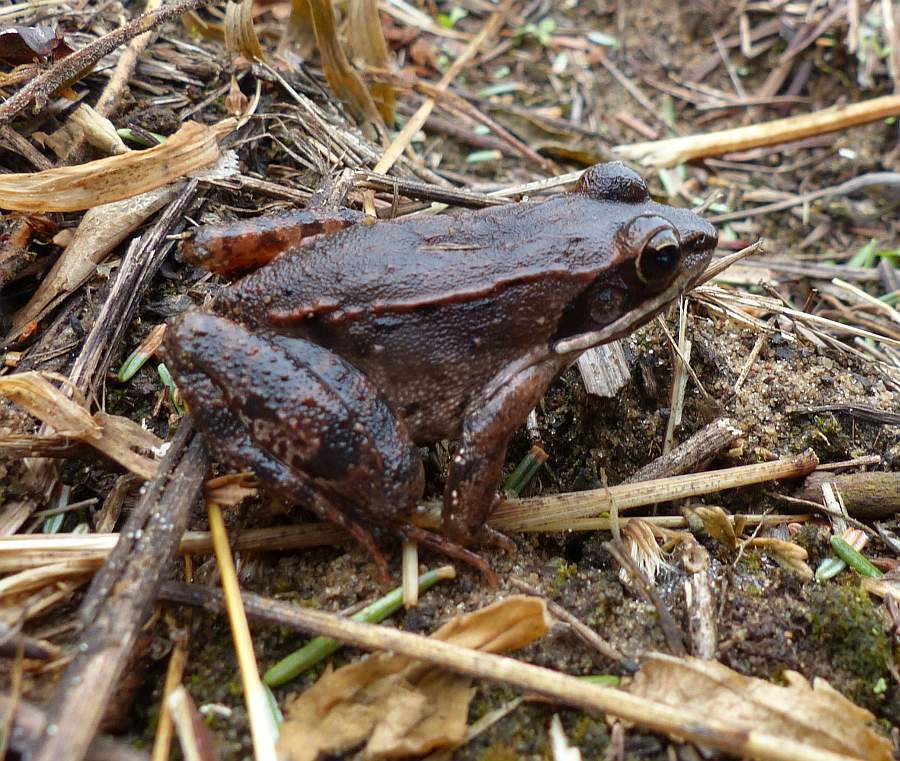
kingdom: Animalia
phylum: Chordata
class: Amphibia
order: Anura
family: Ranidae
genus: Lithobates
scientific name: Lithobates sylvaticus
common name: Wood frog
